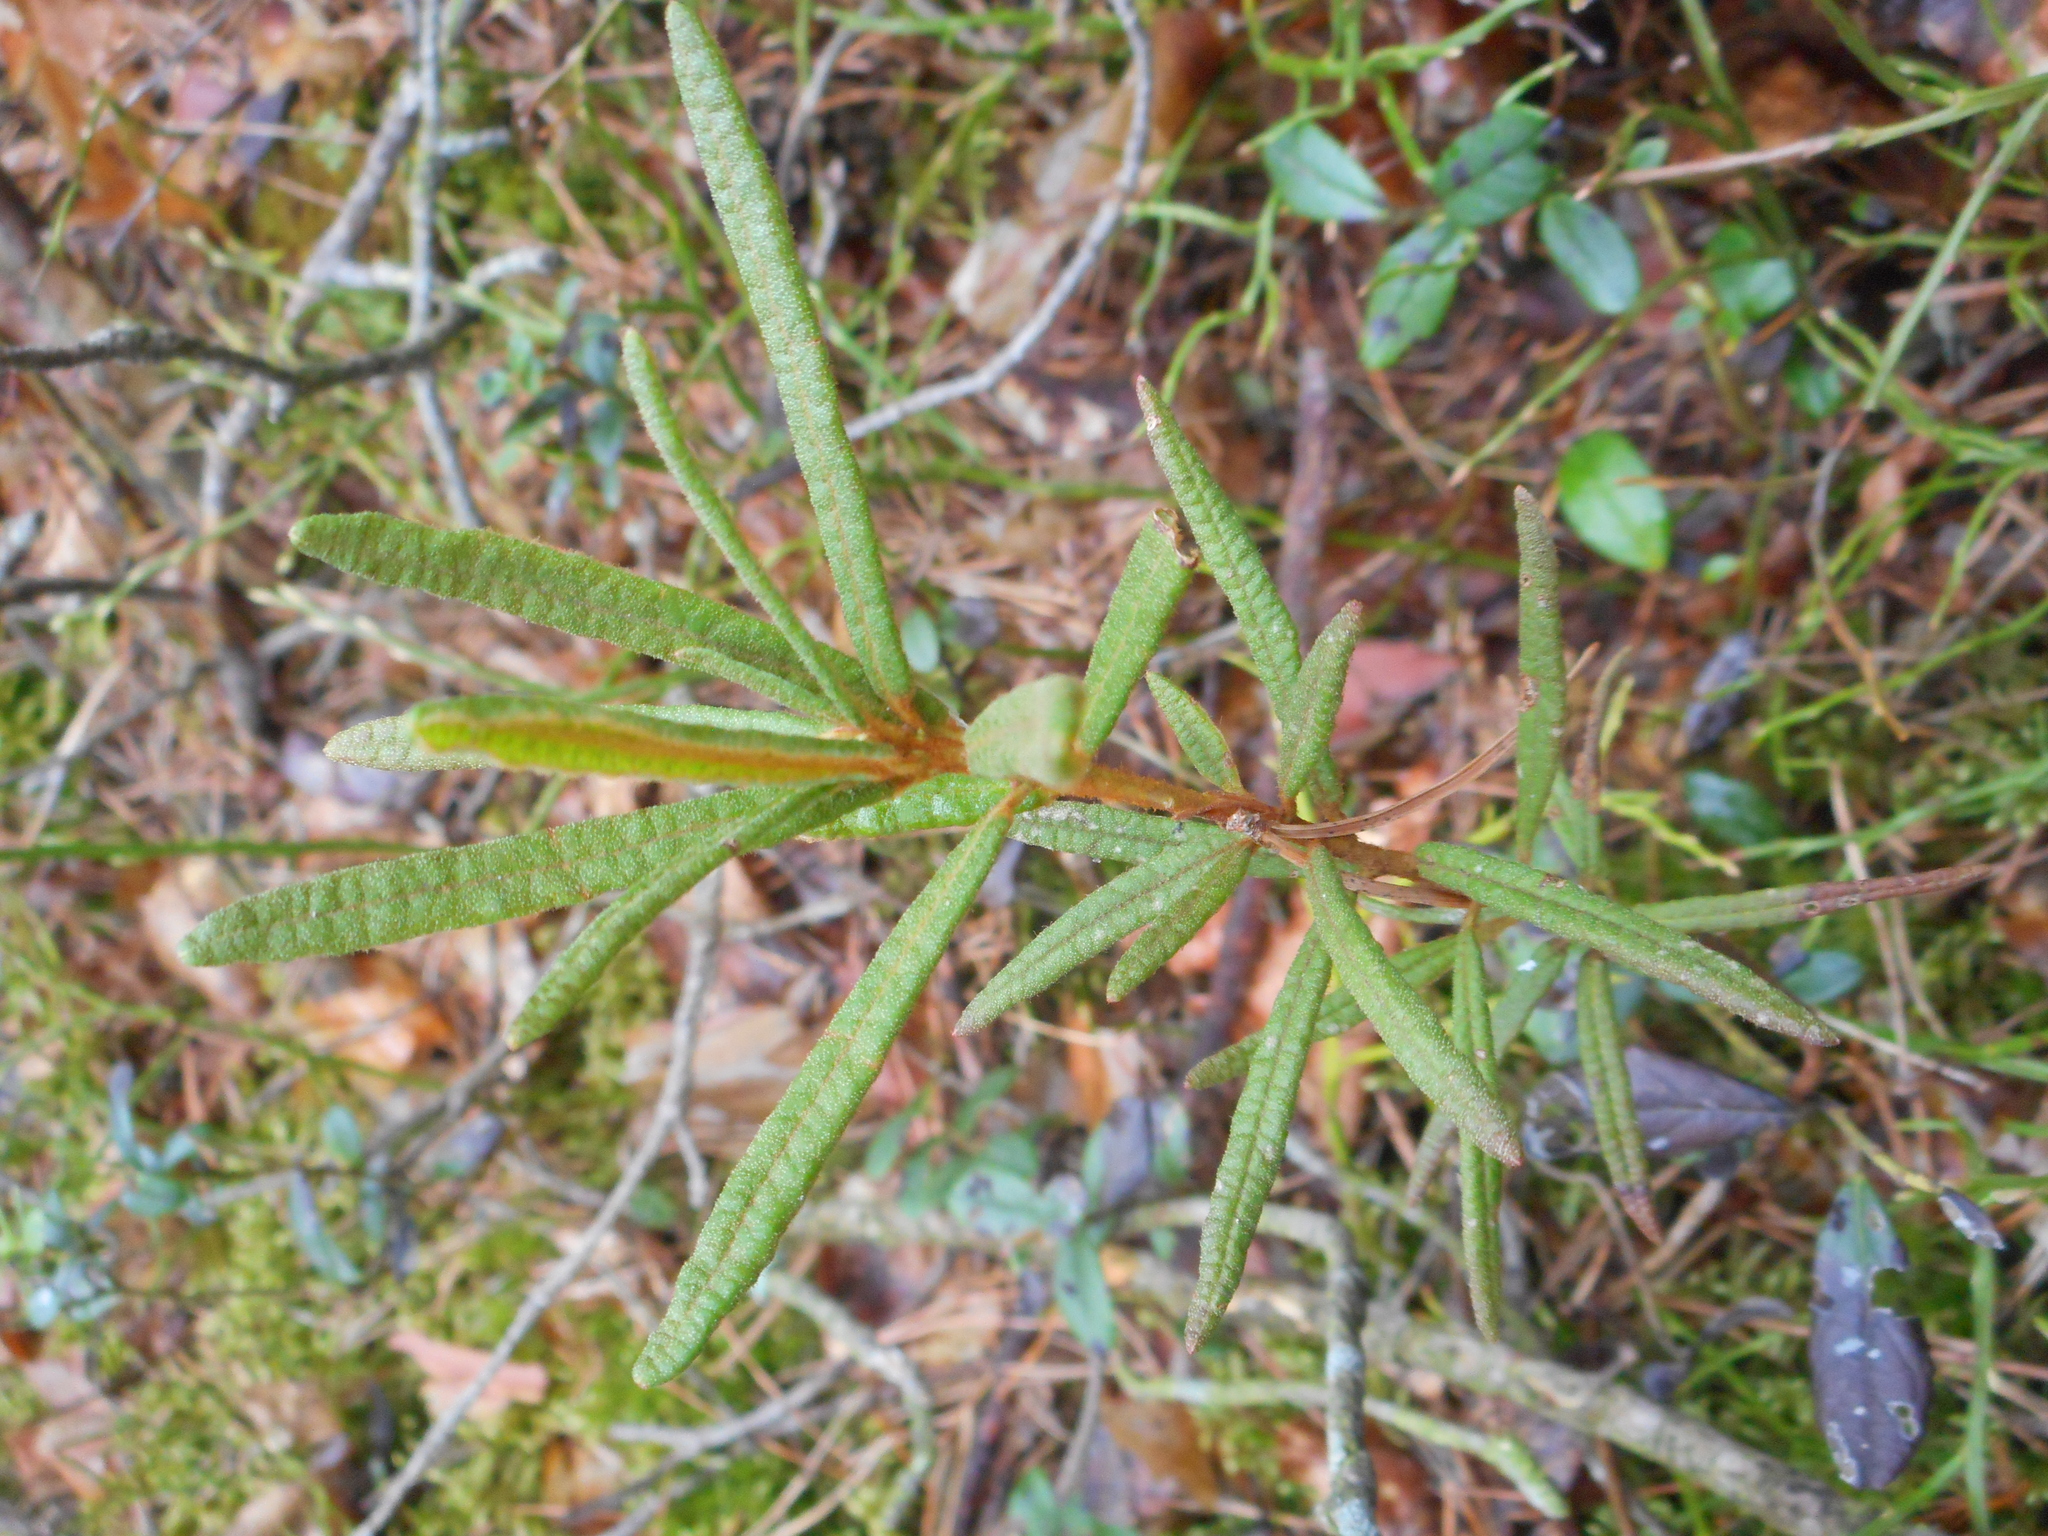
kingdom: Plantae
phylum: Tracheophyta
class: Magnoliopsida
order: Ericales
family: Ericaceae
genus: Rhododendron
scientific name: Rhododendron tomentosum
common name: Marsh labrador tea
